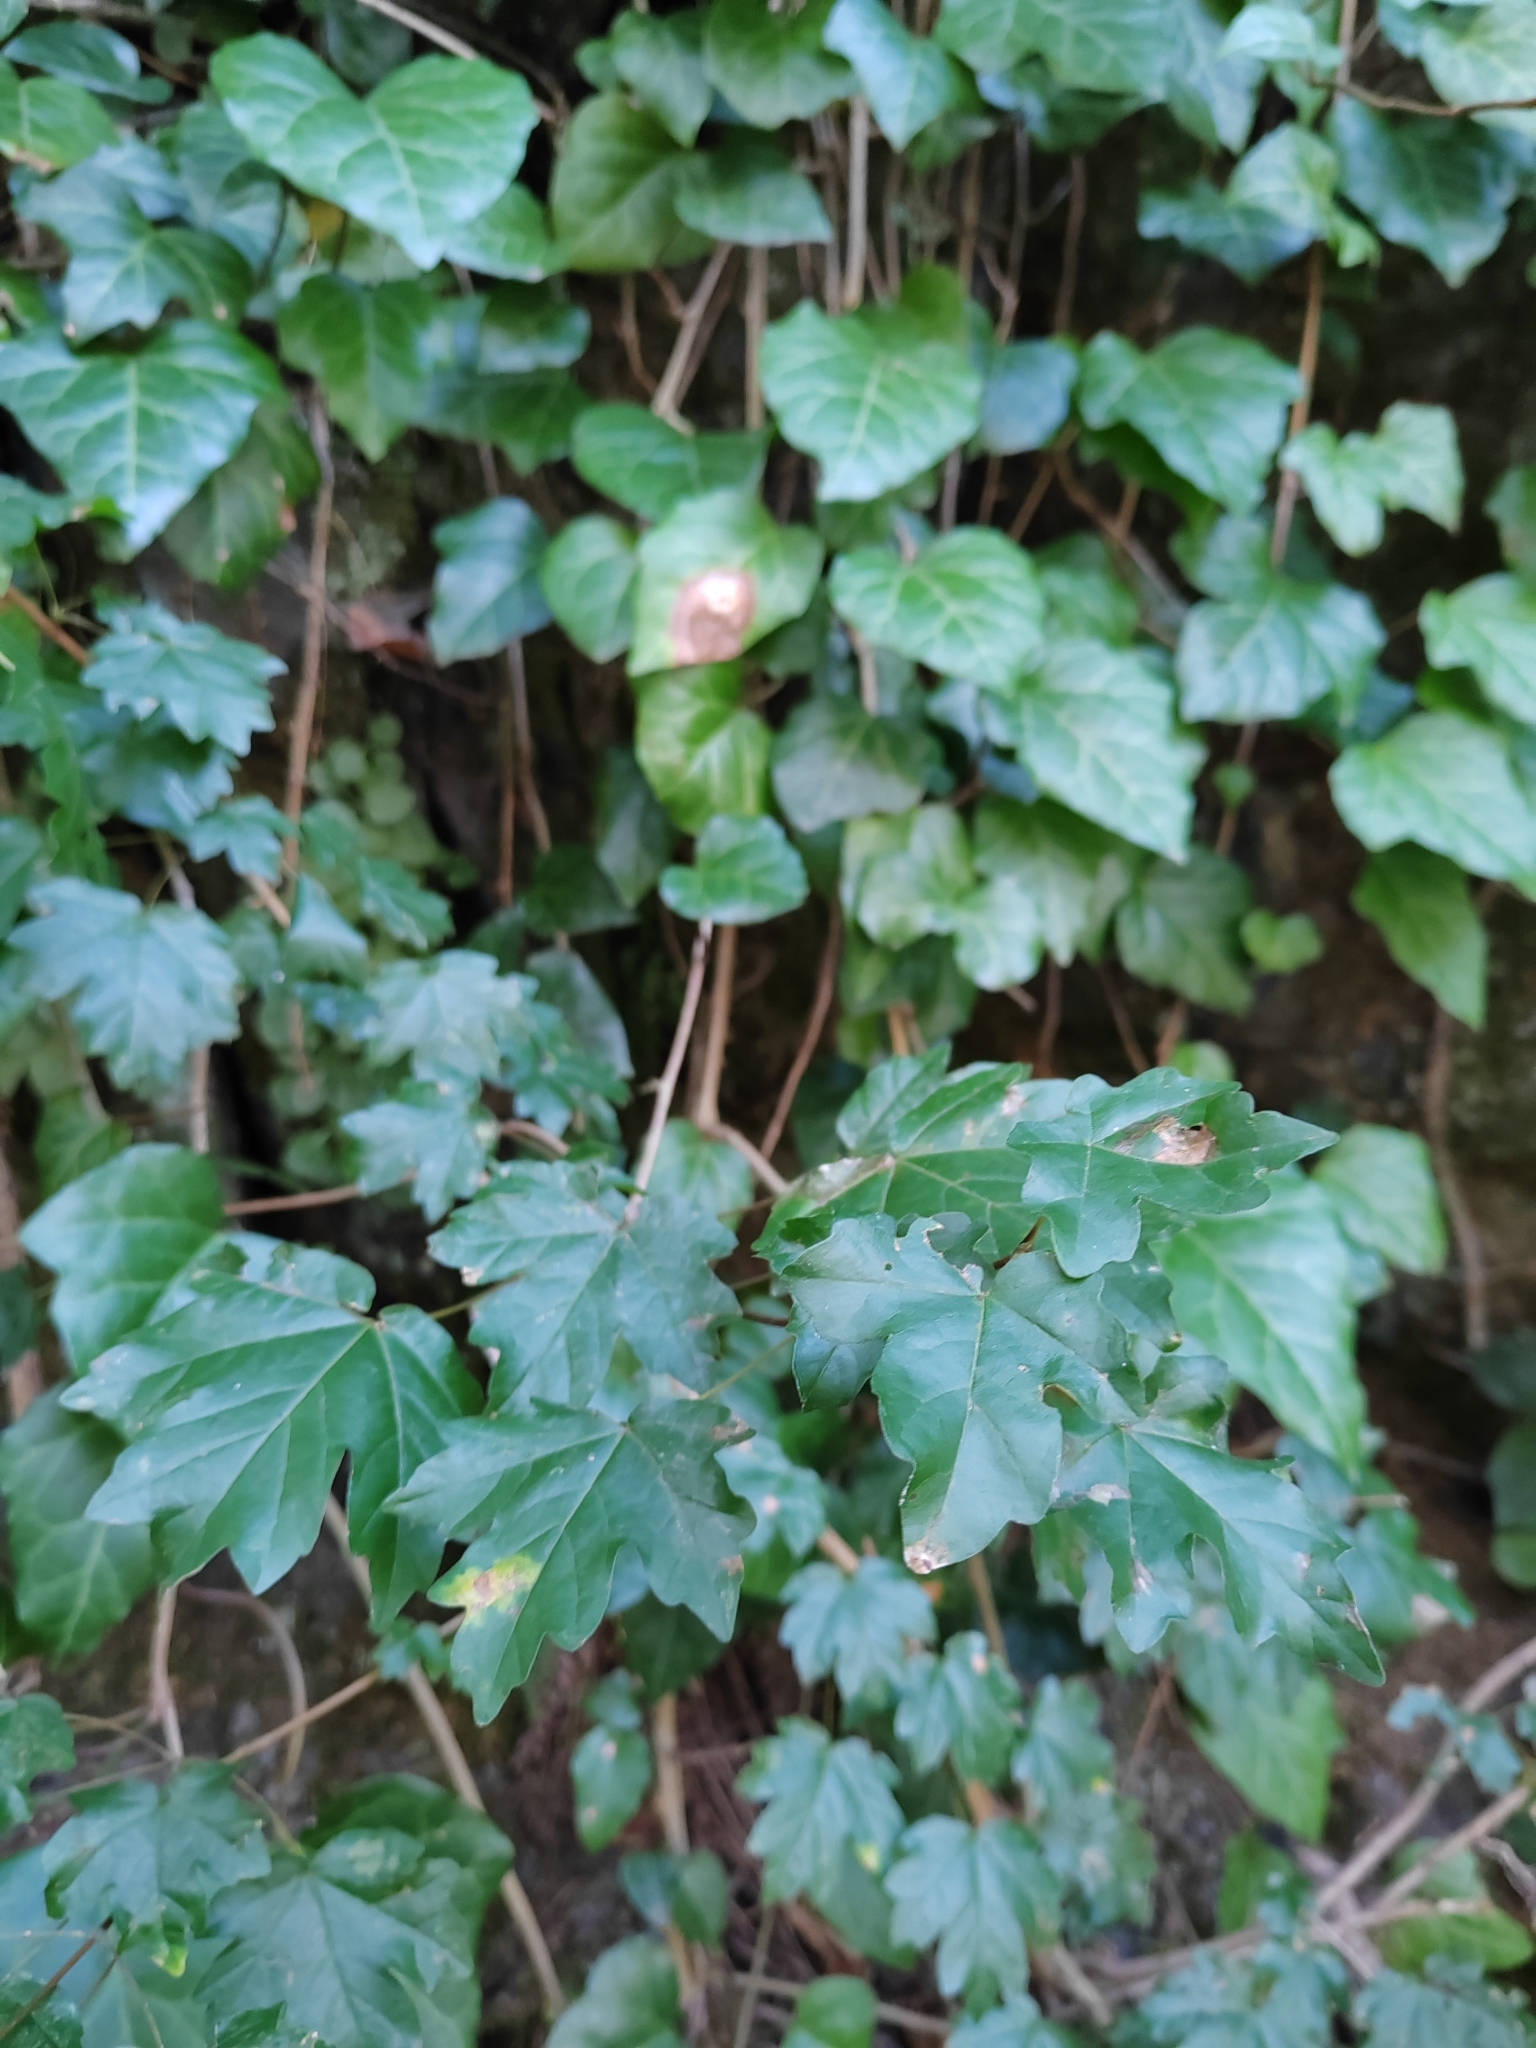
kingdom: Plantae
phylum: Tracheophyta
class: Magnoliopsida
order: Sapindales
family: Sapindaceae
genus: Acer
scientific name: Acer campestre
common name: Field maple
